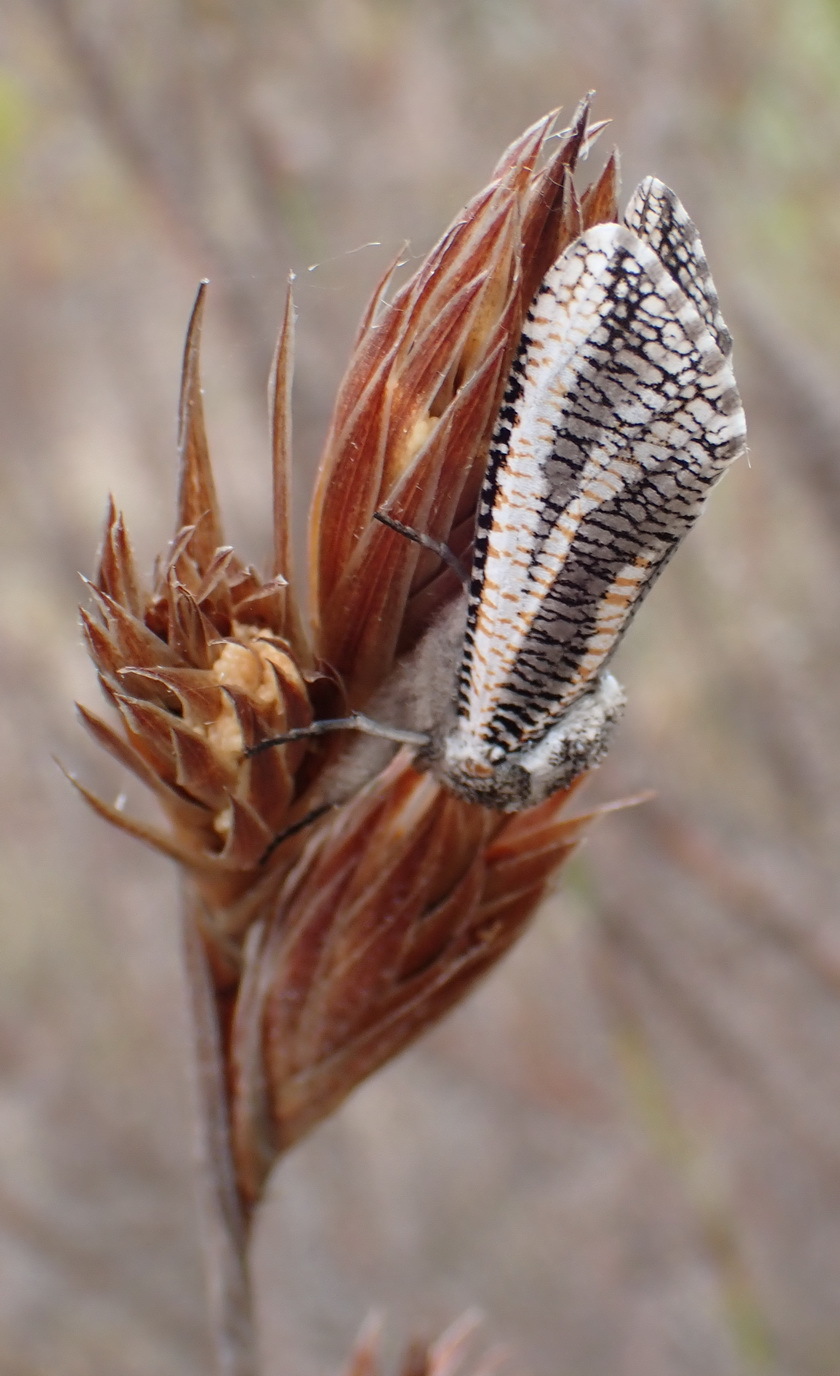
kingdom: Plantae
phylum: Tracheophyta
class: Liliopsida
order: Poales
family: Restionaceae
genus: Thamnochortus
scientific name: Thamnochortus glaber
